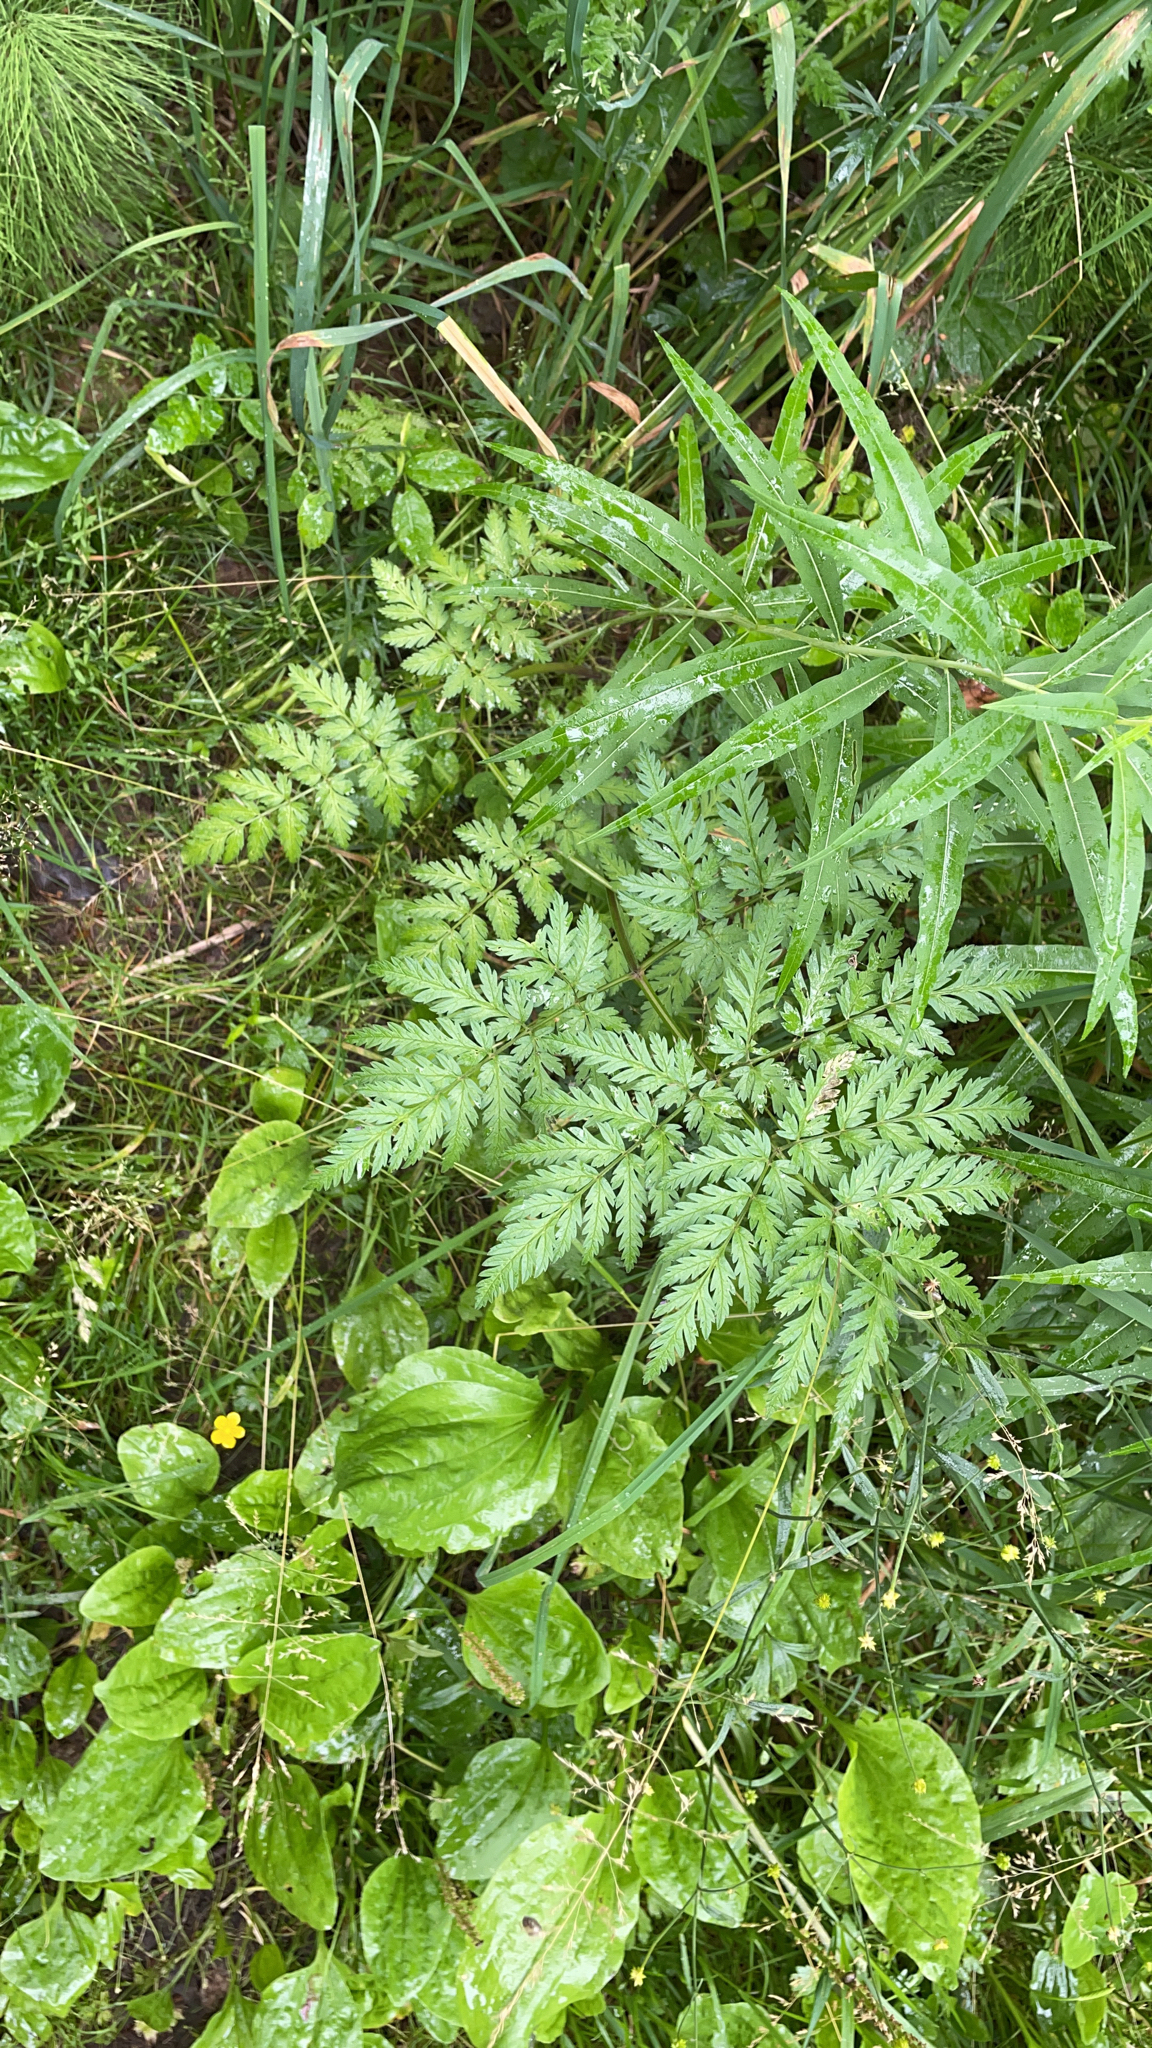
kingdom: Plantae
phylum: Tracheophyta
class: Magnoliopsida
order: Apiales
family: Apiaceae
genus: Anthriscus
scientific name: Anthriscus sylvestris
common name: Cow parsley
